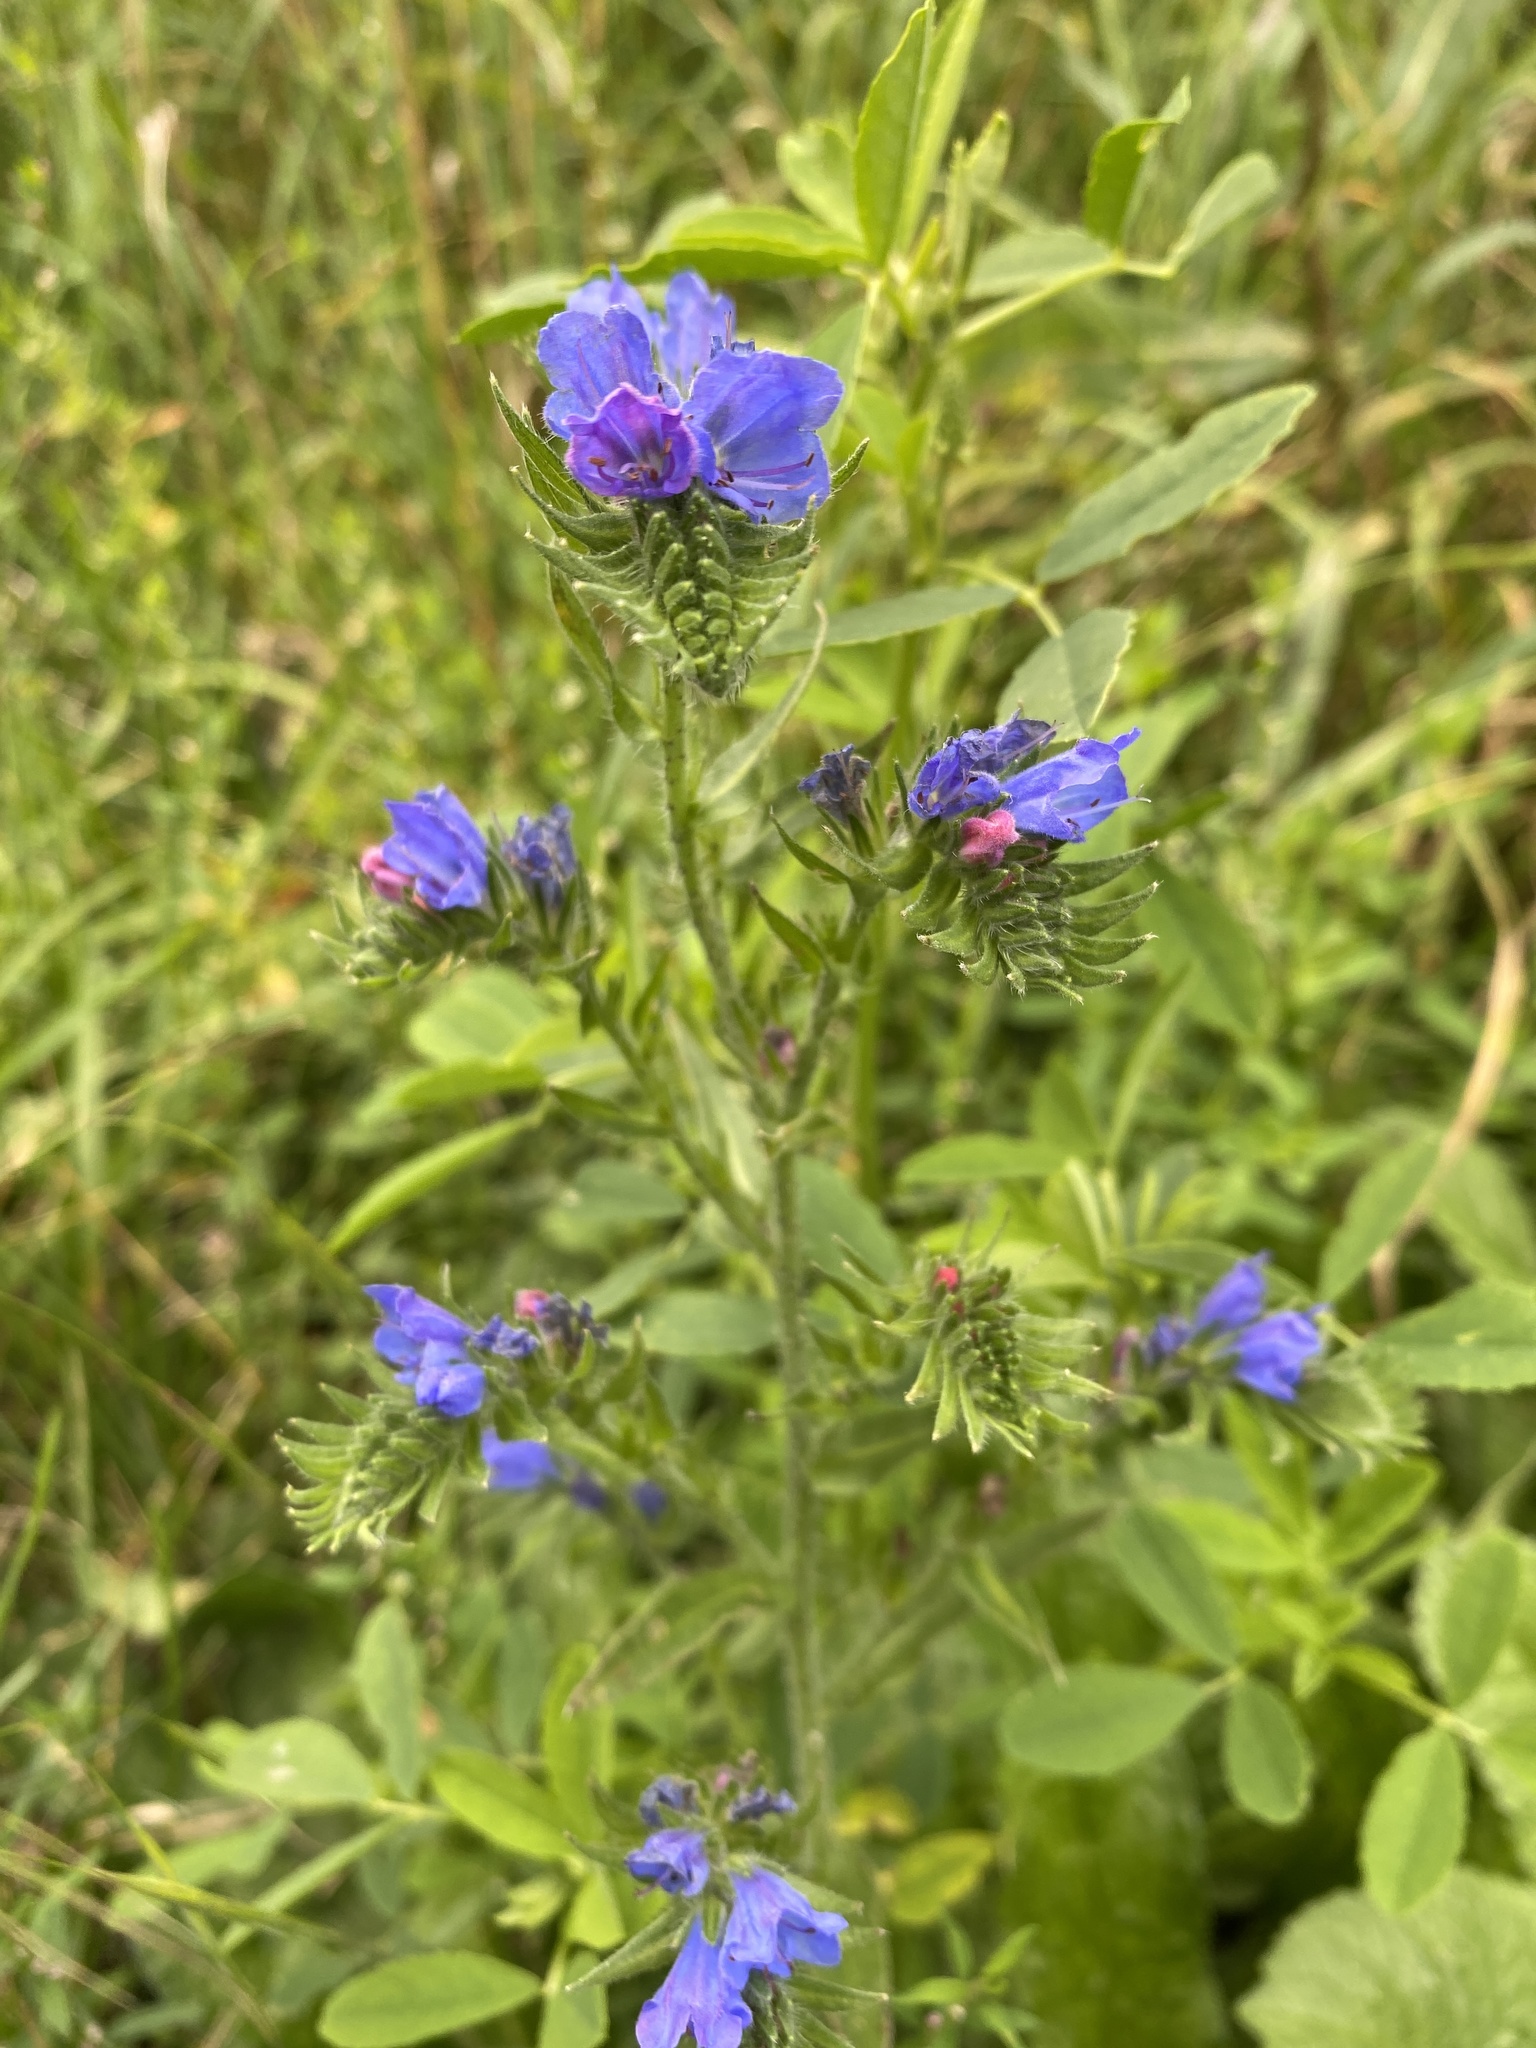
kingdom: Plantae
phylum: Tracheophyta
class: Magnoliopsida
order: Boraginales
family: Boraginaceae
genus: Echium
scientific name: Echium vulgare
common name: Common viper's bugloss
